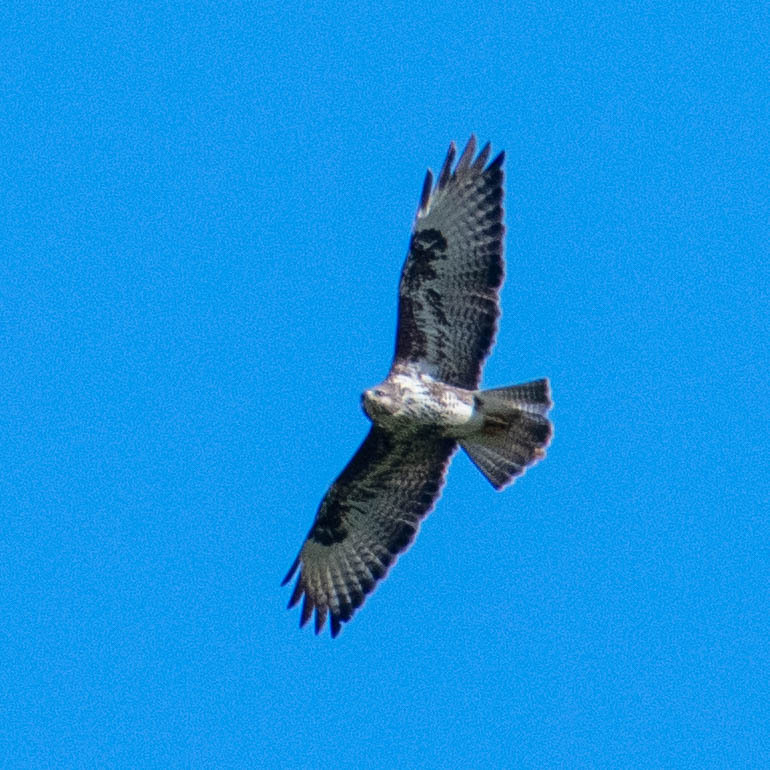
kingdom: Animalia
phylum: Chordata
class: Aves
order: Accipitriformes
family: Accipitridae
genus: Buteo
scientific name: Buteo buteo
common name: Common buzzard
